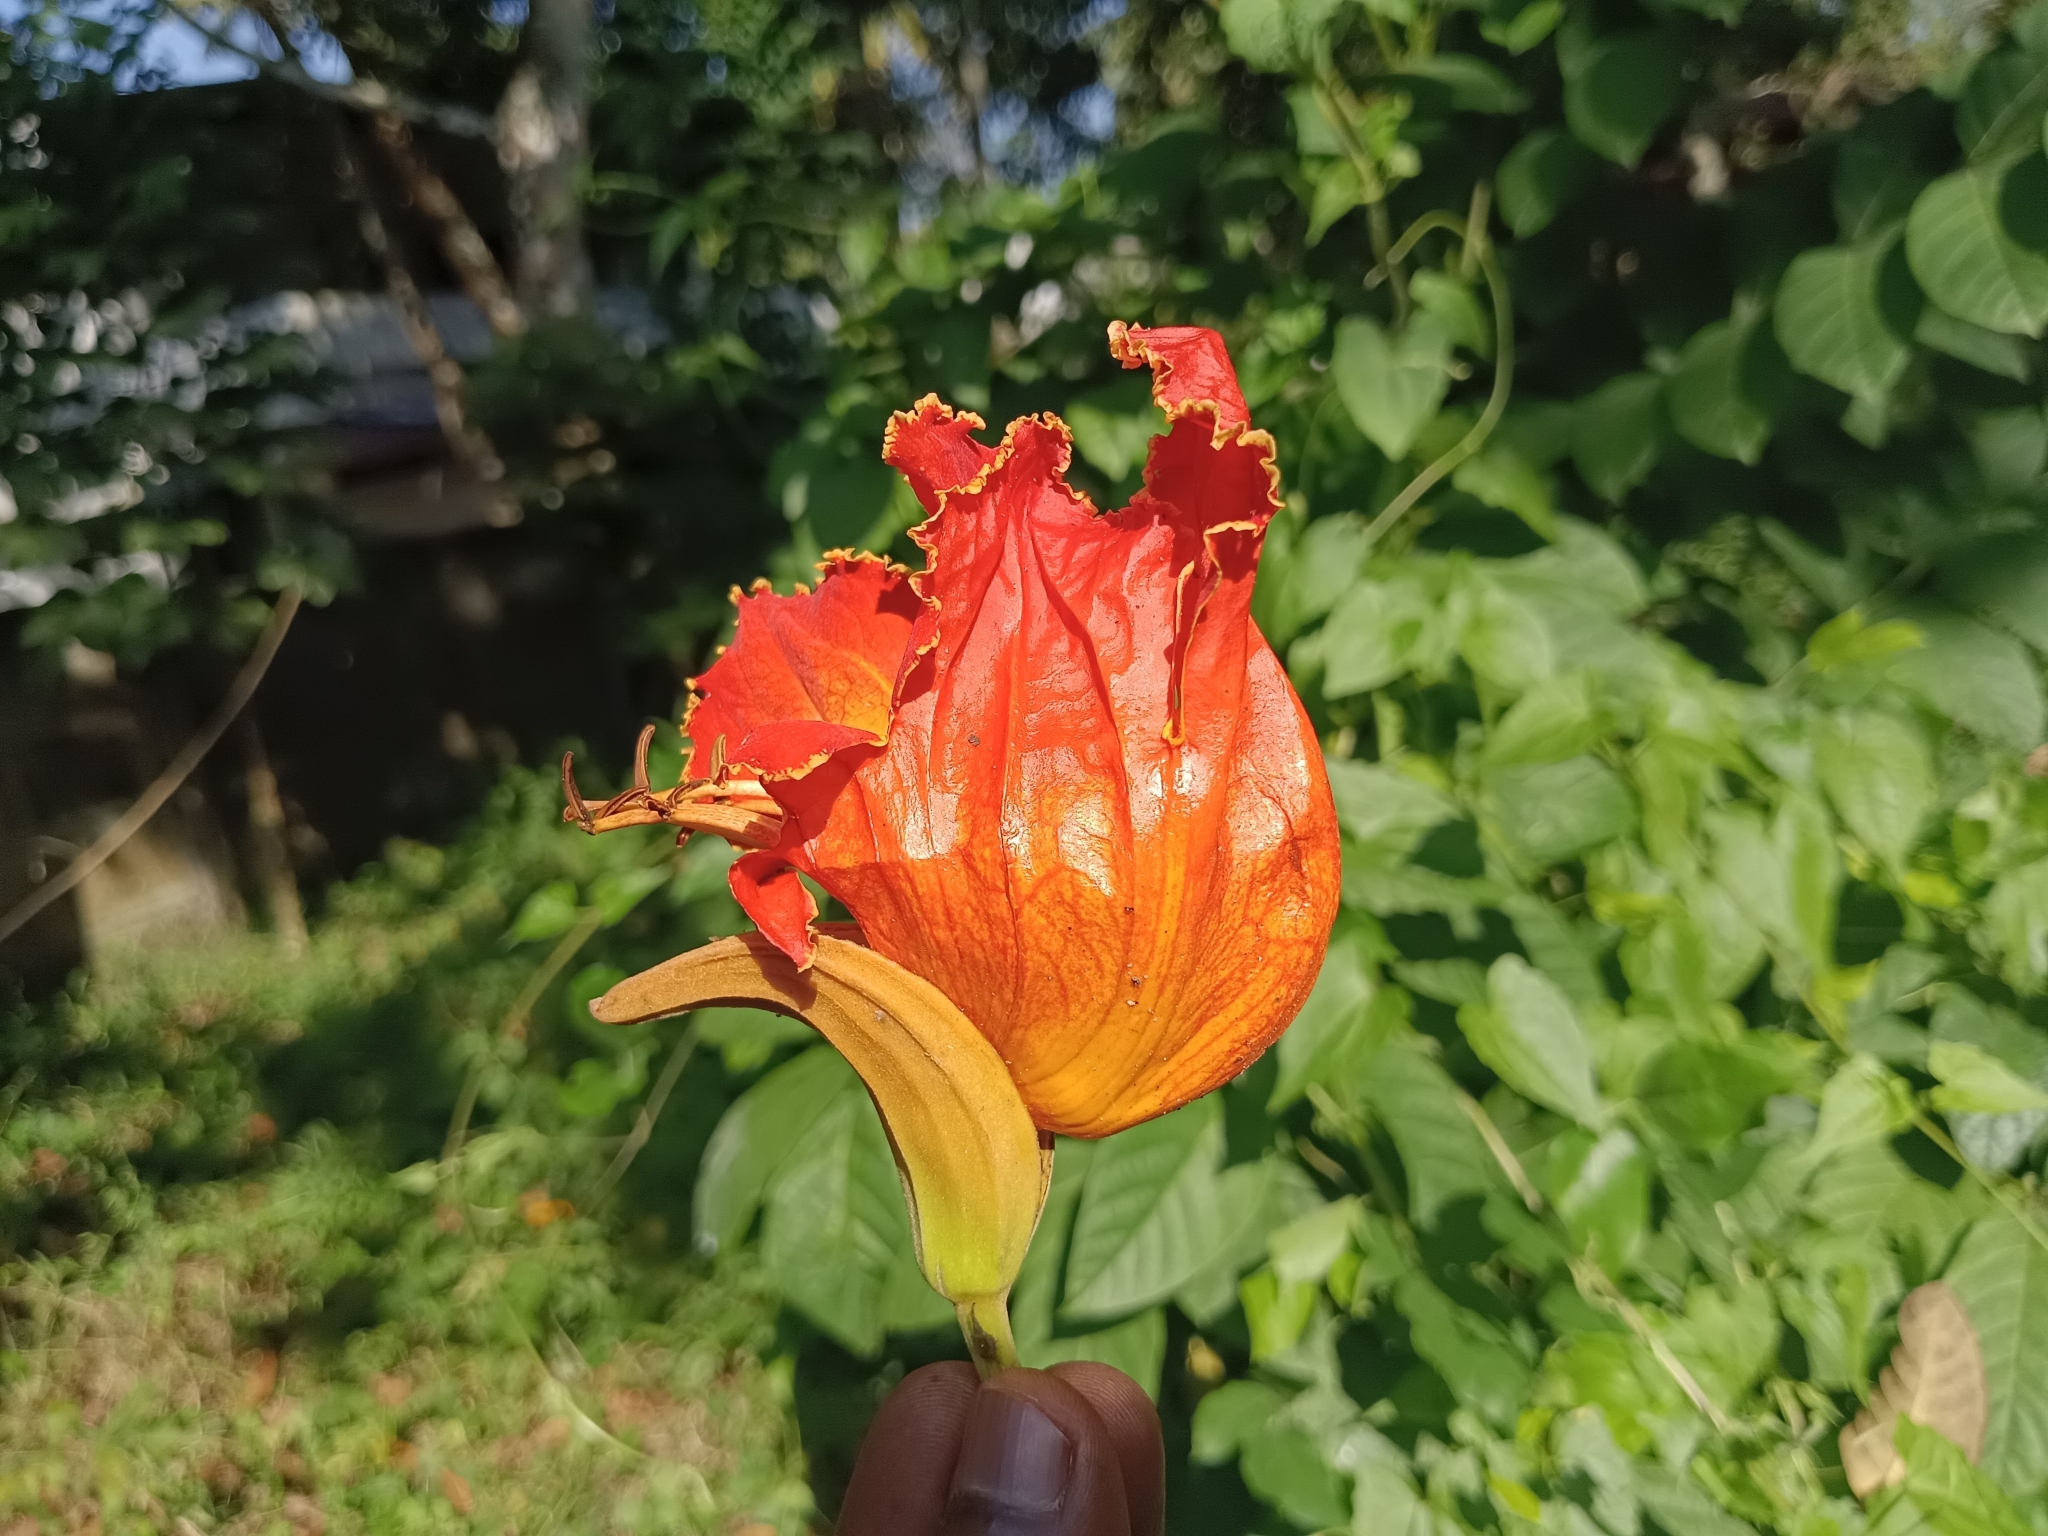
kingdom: Plantae
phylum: Tracheophyta
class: Magnoliopsida
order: Lamiales
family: Bignoniaceae
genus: Spathodea
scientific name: Spathodea campanulata
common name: African tuliptree
